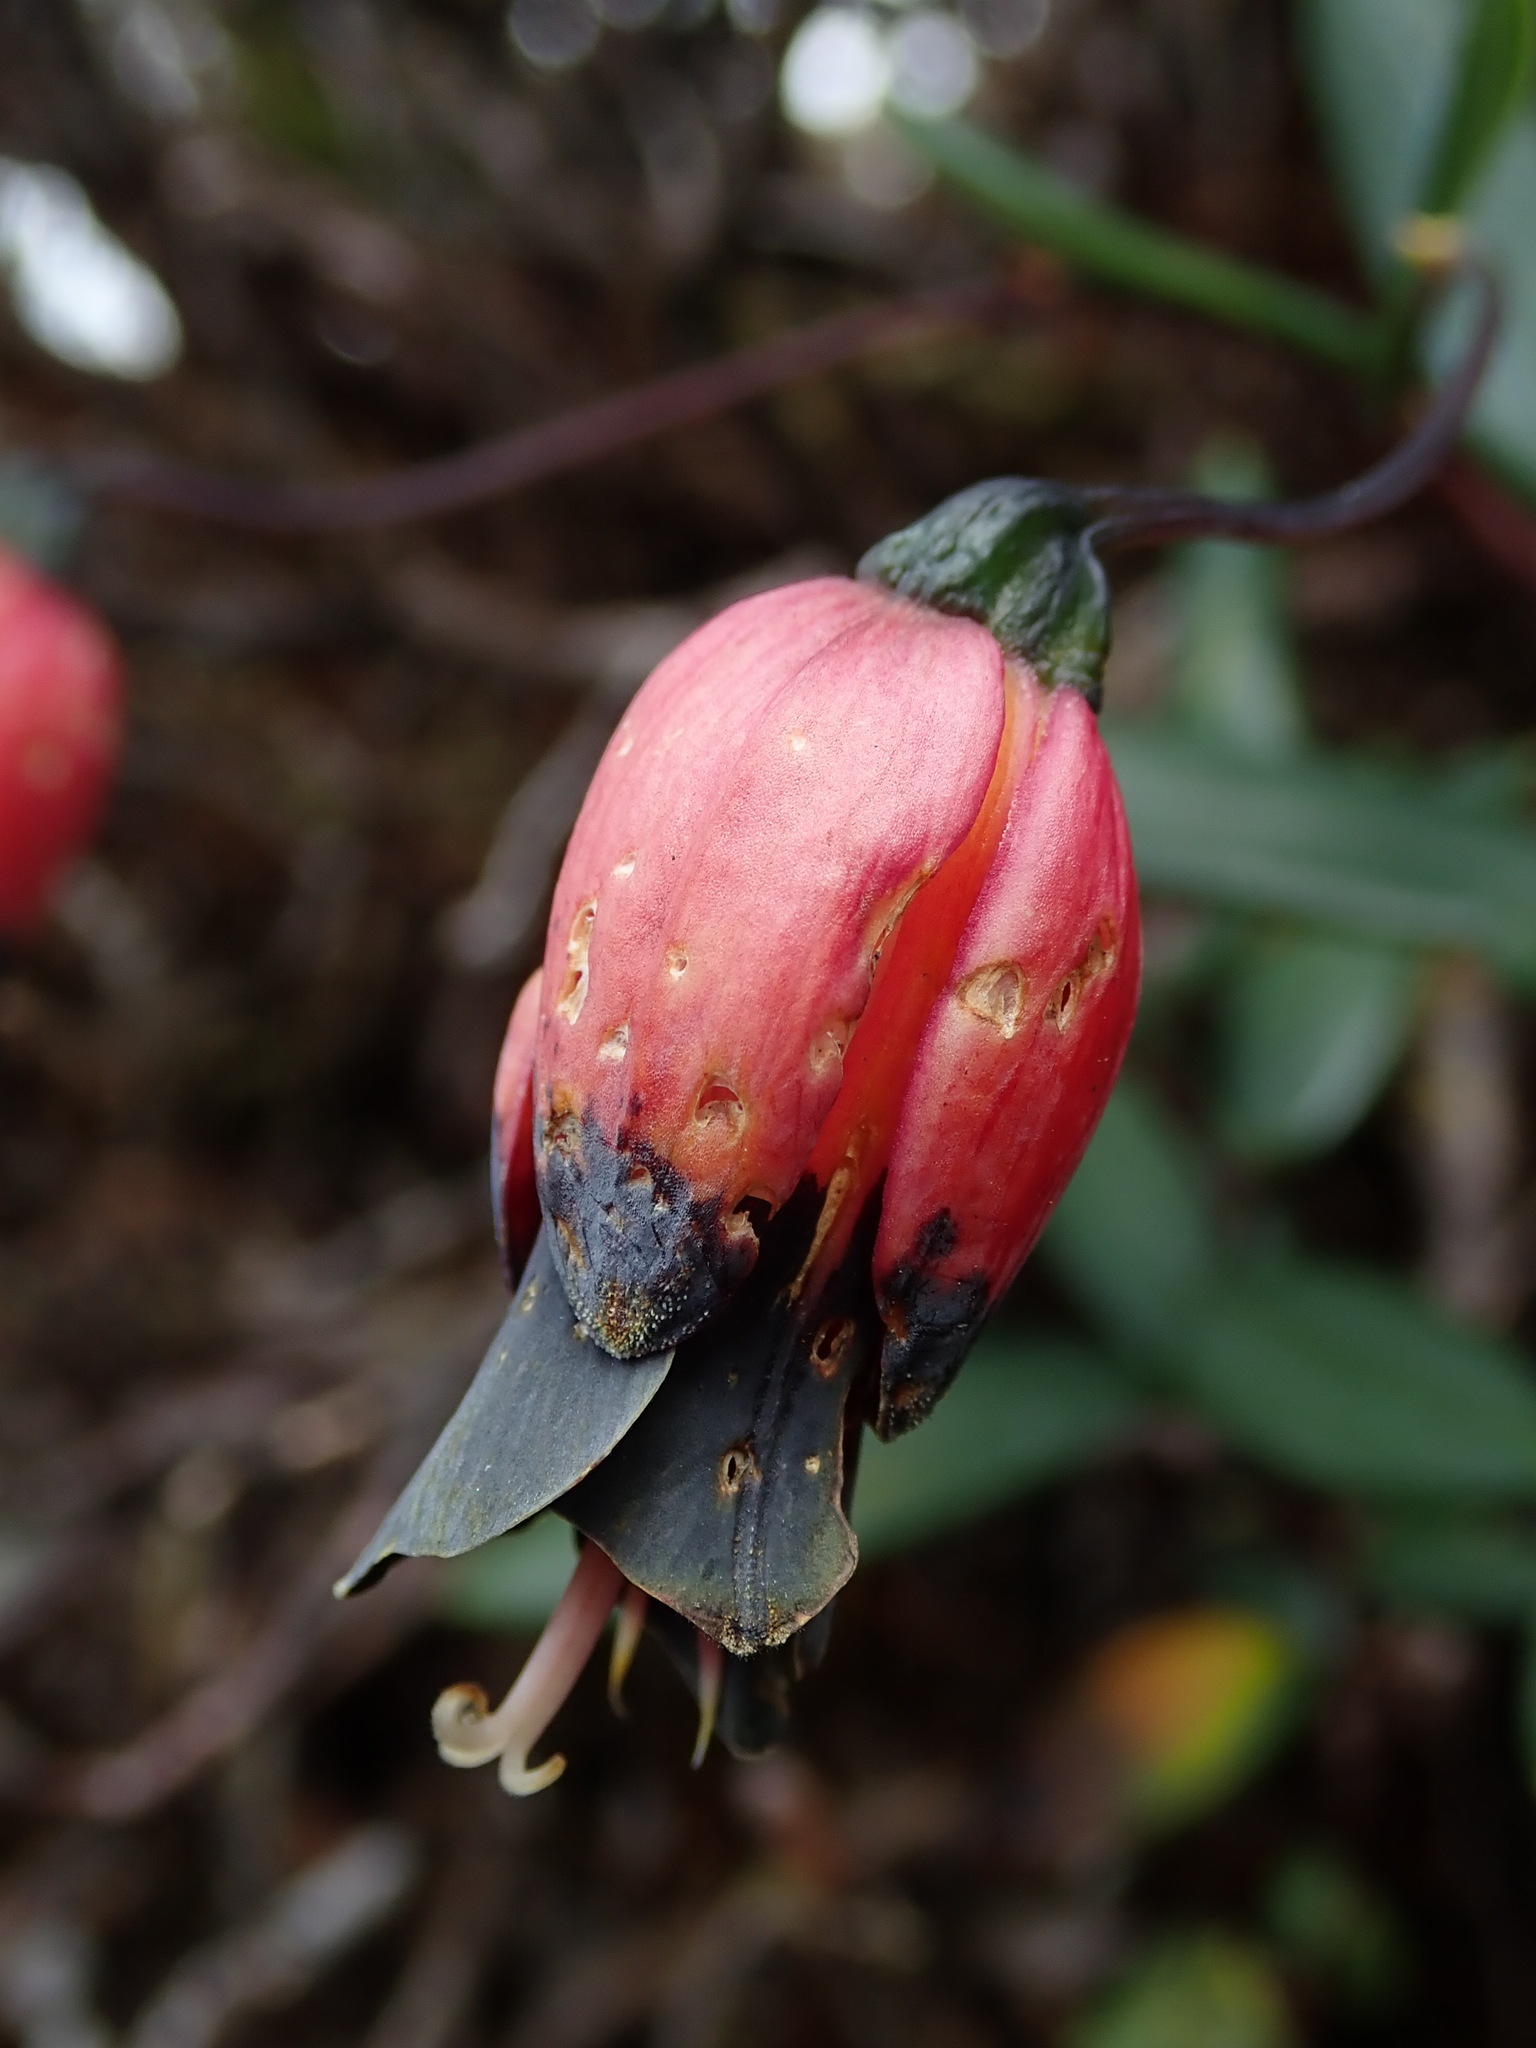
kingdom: Plantae
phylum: Tracheophyta
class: Liliopsida
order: Liliales
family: Alstroemeriaceae
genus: Bomarea
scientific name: Bomarea brachysepala
